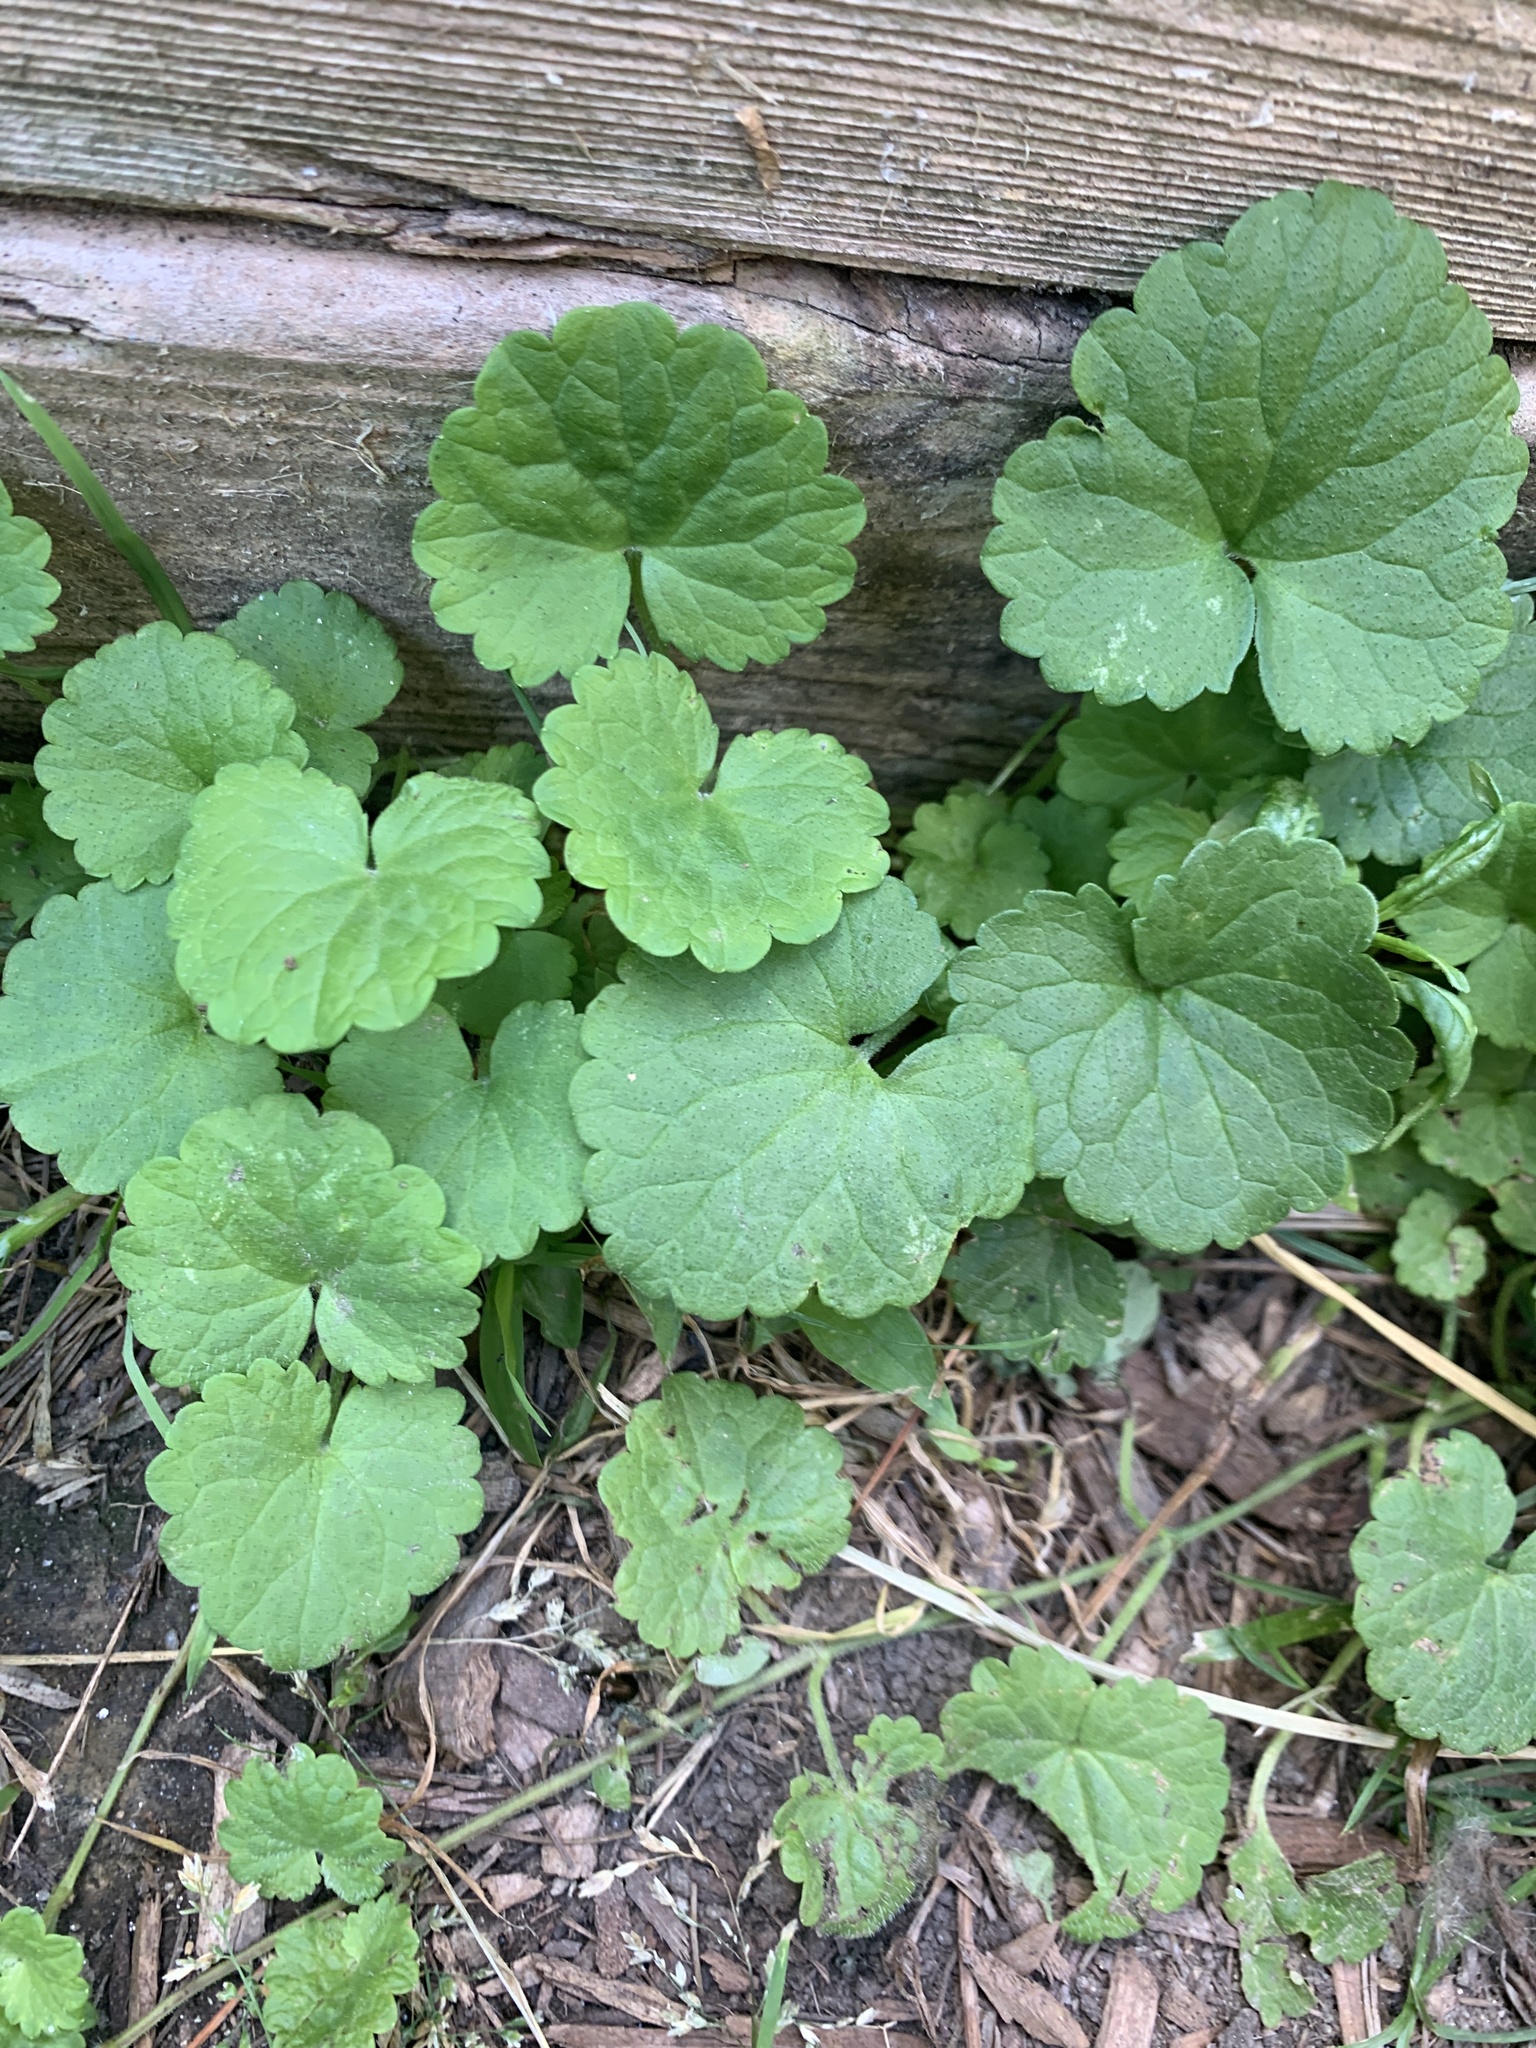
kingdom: Plantae
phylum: Tracheophyta
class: Magnoliopsida
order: Lamiales
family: Lamiaceae
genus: Glechoma
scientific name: Glechoma hederacea
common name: Ground ivy
